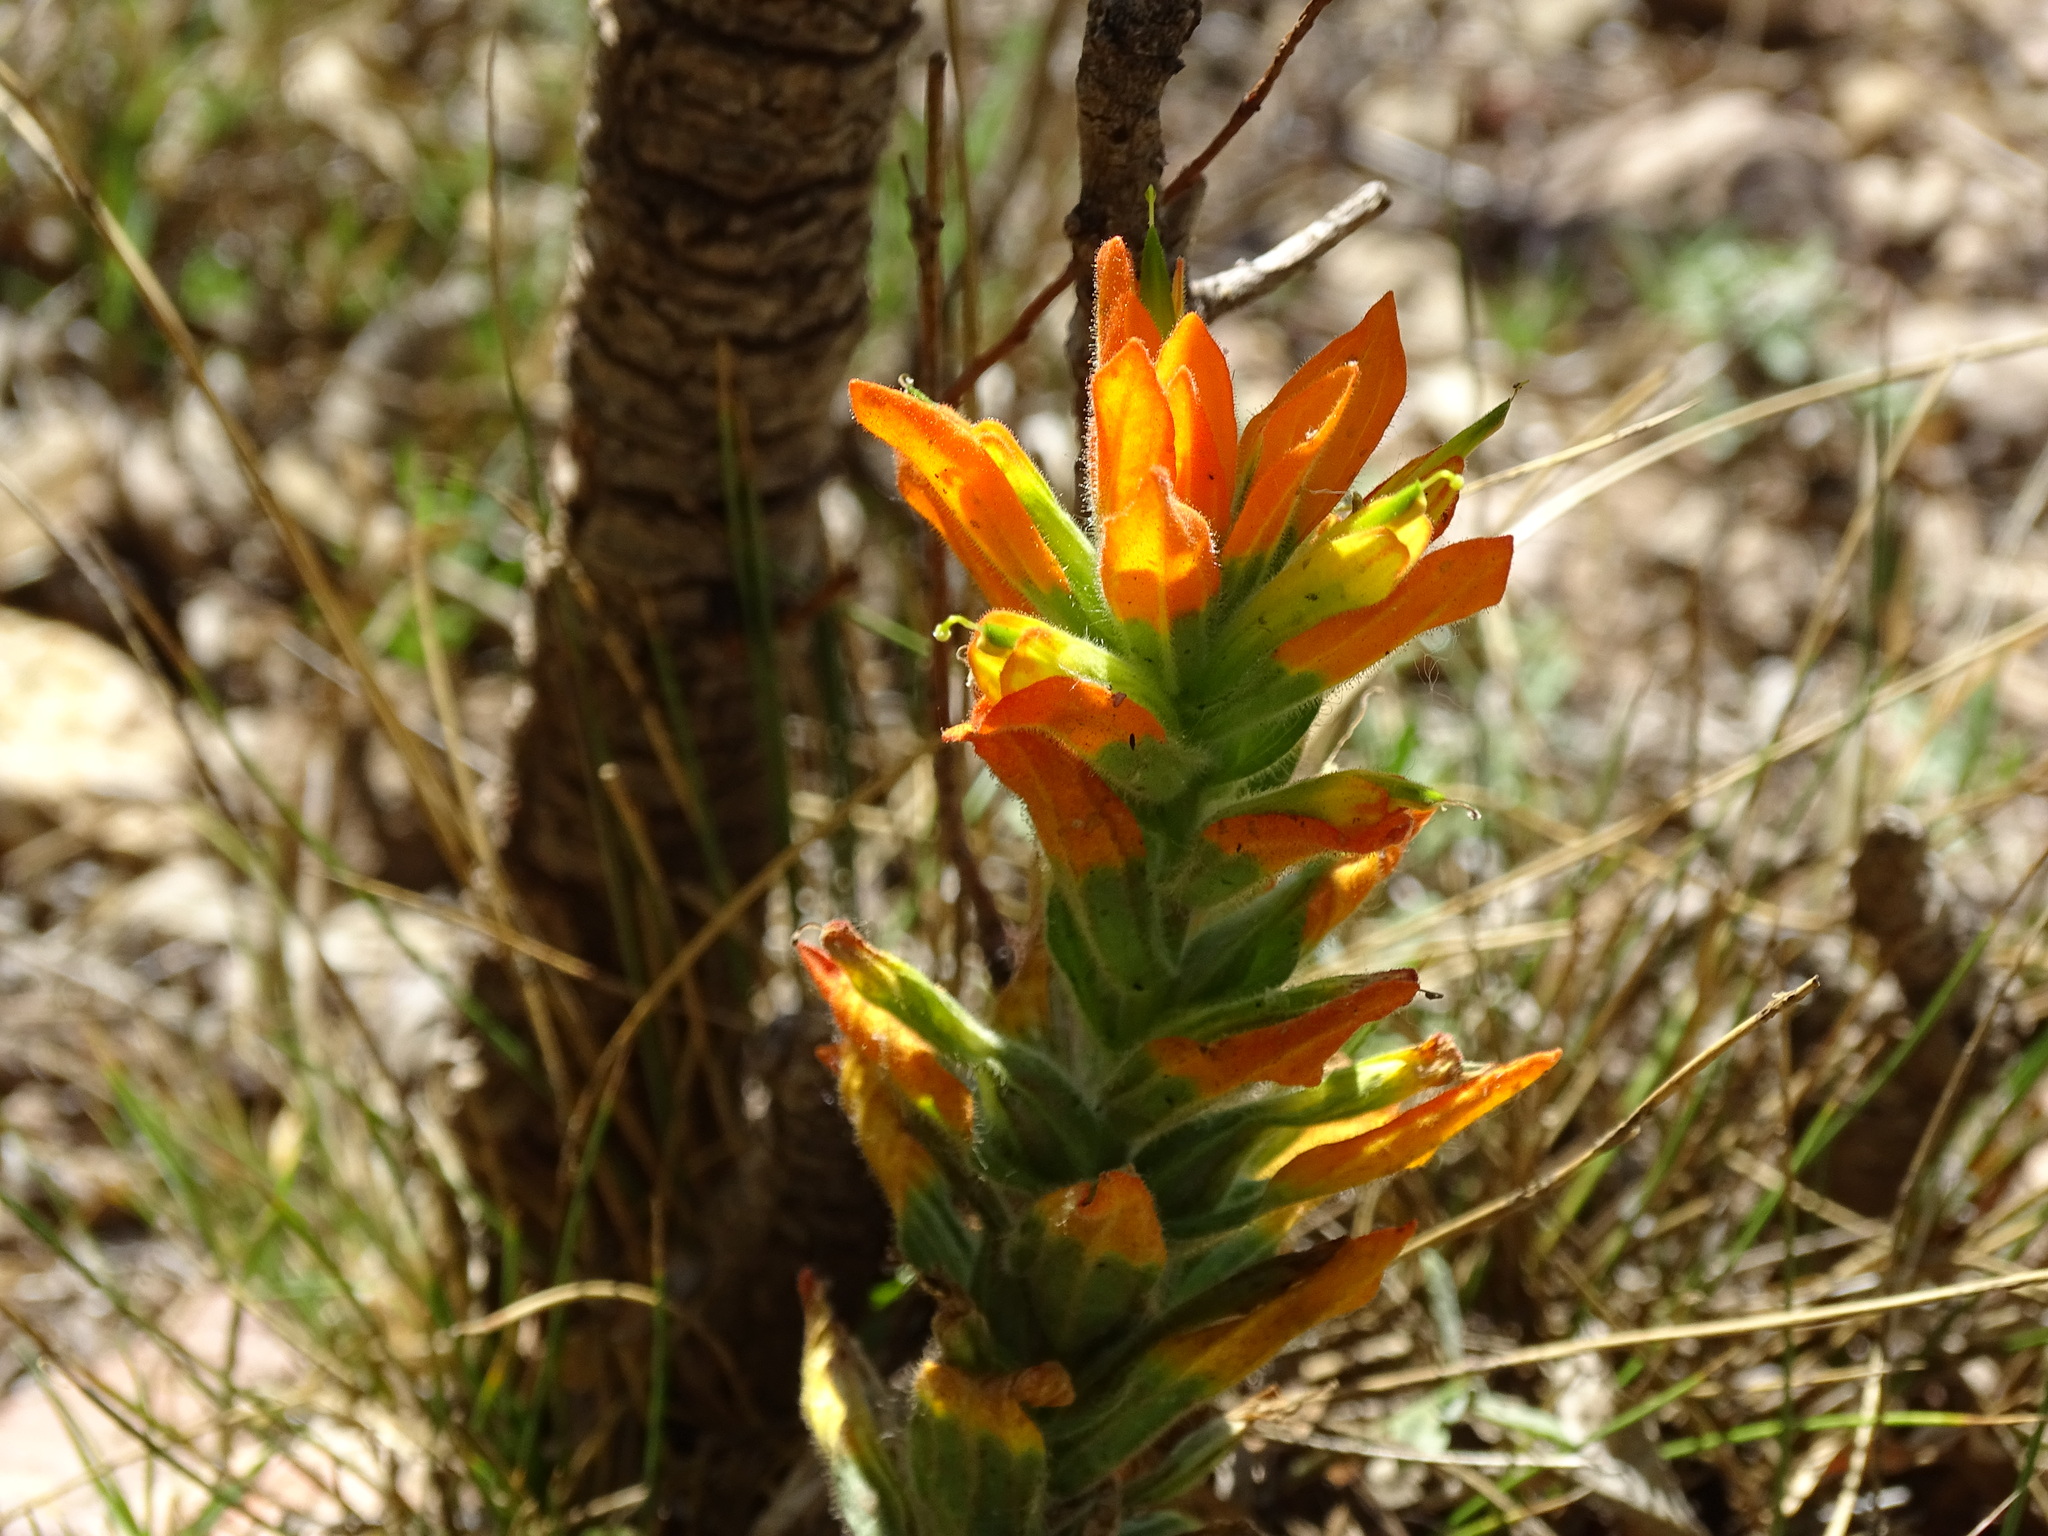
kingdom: Plantae
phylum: Tracheophyta
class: Magnoliopsida
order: Lamiales
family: Orobanchaceae
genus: Castilleja
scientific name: Castilleja scorzonerifolia
